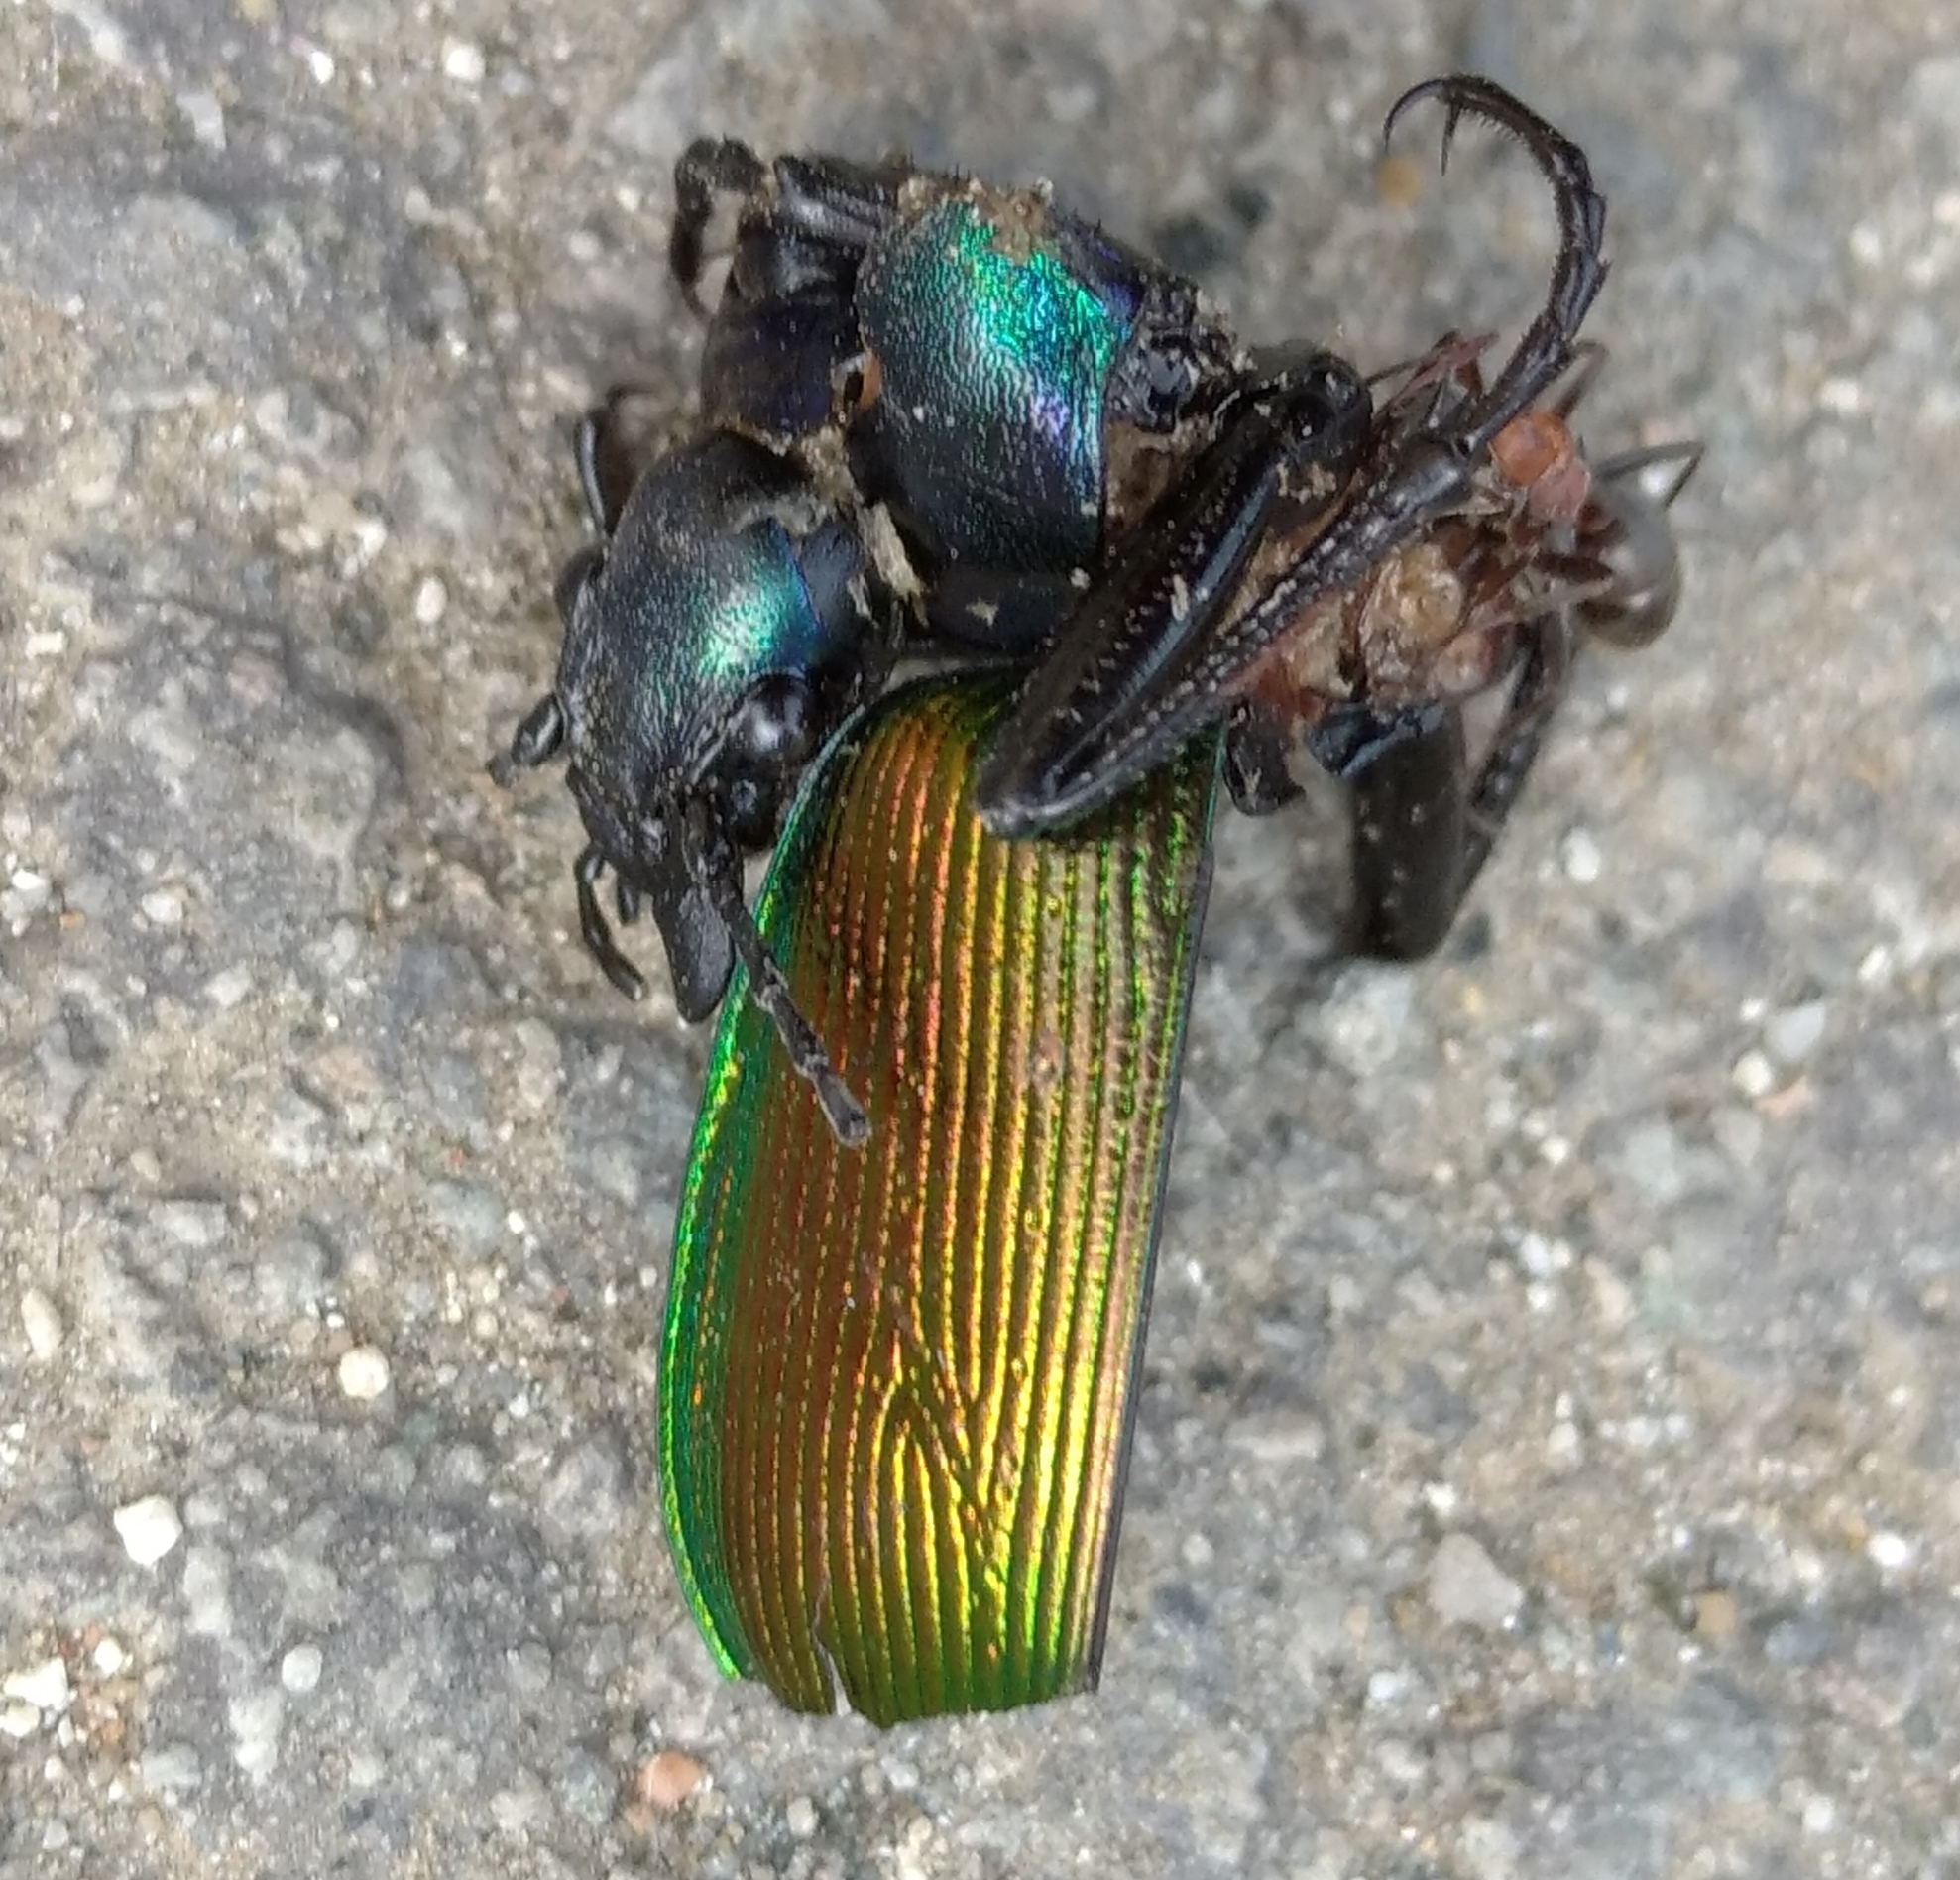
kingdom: Animalia
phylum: Arthropoda
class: Insecta
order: Coleoptera
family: Carabidae
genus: Calosoma
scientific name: Calosoma sycophanta
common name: Forest caterpillar hunter
